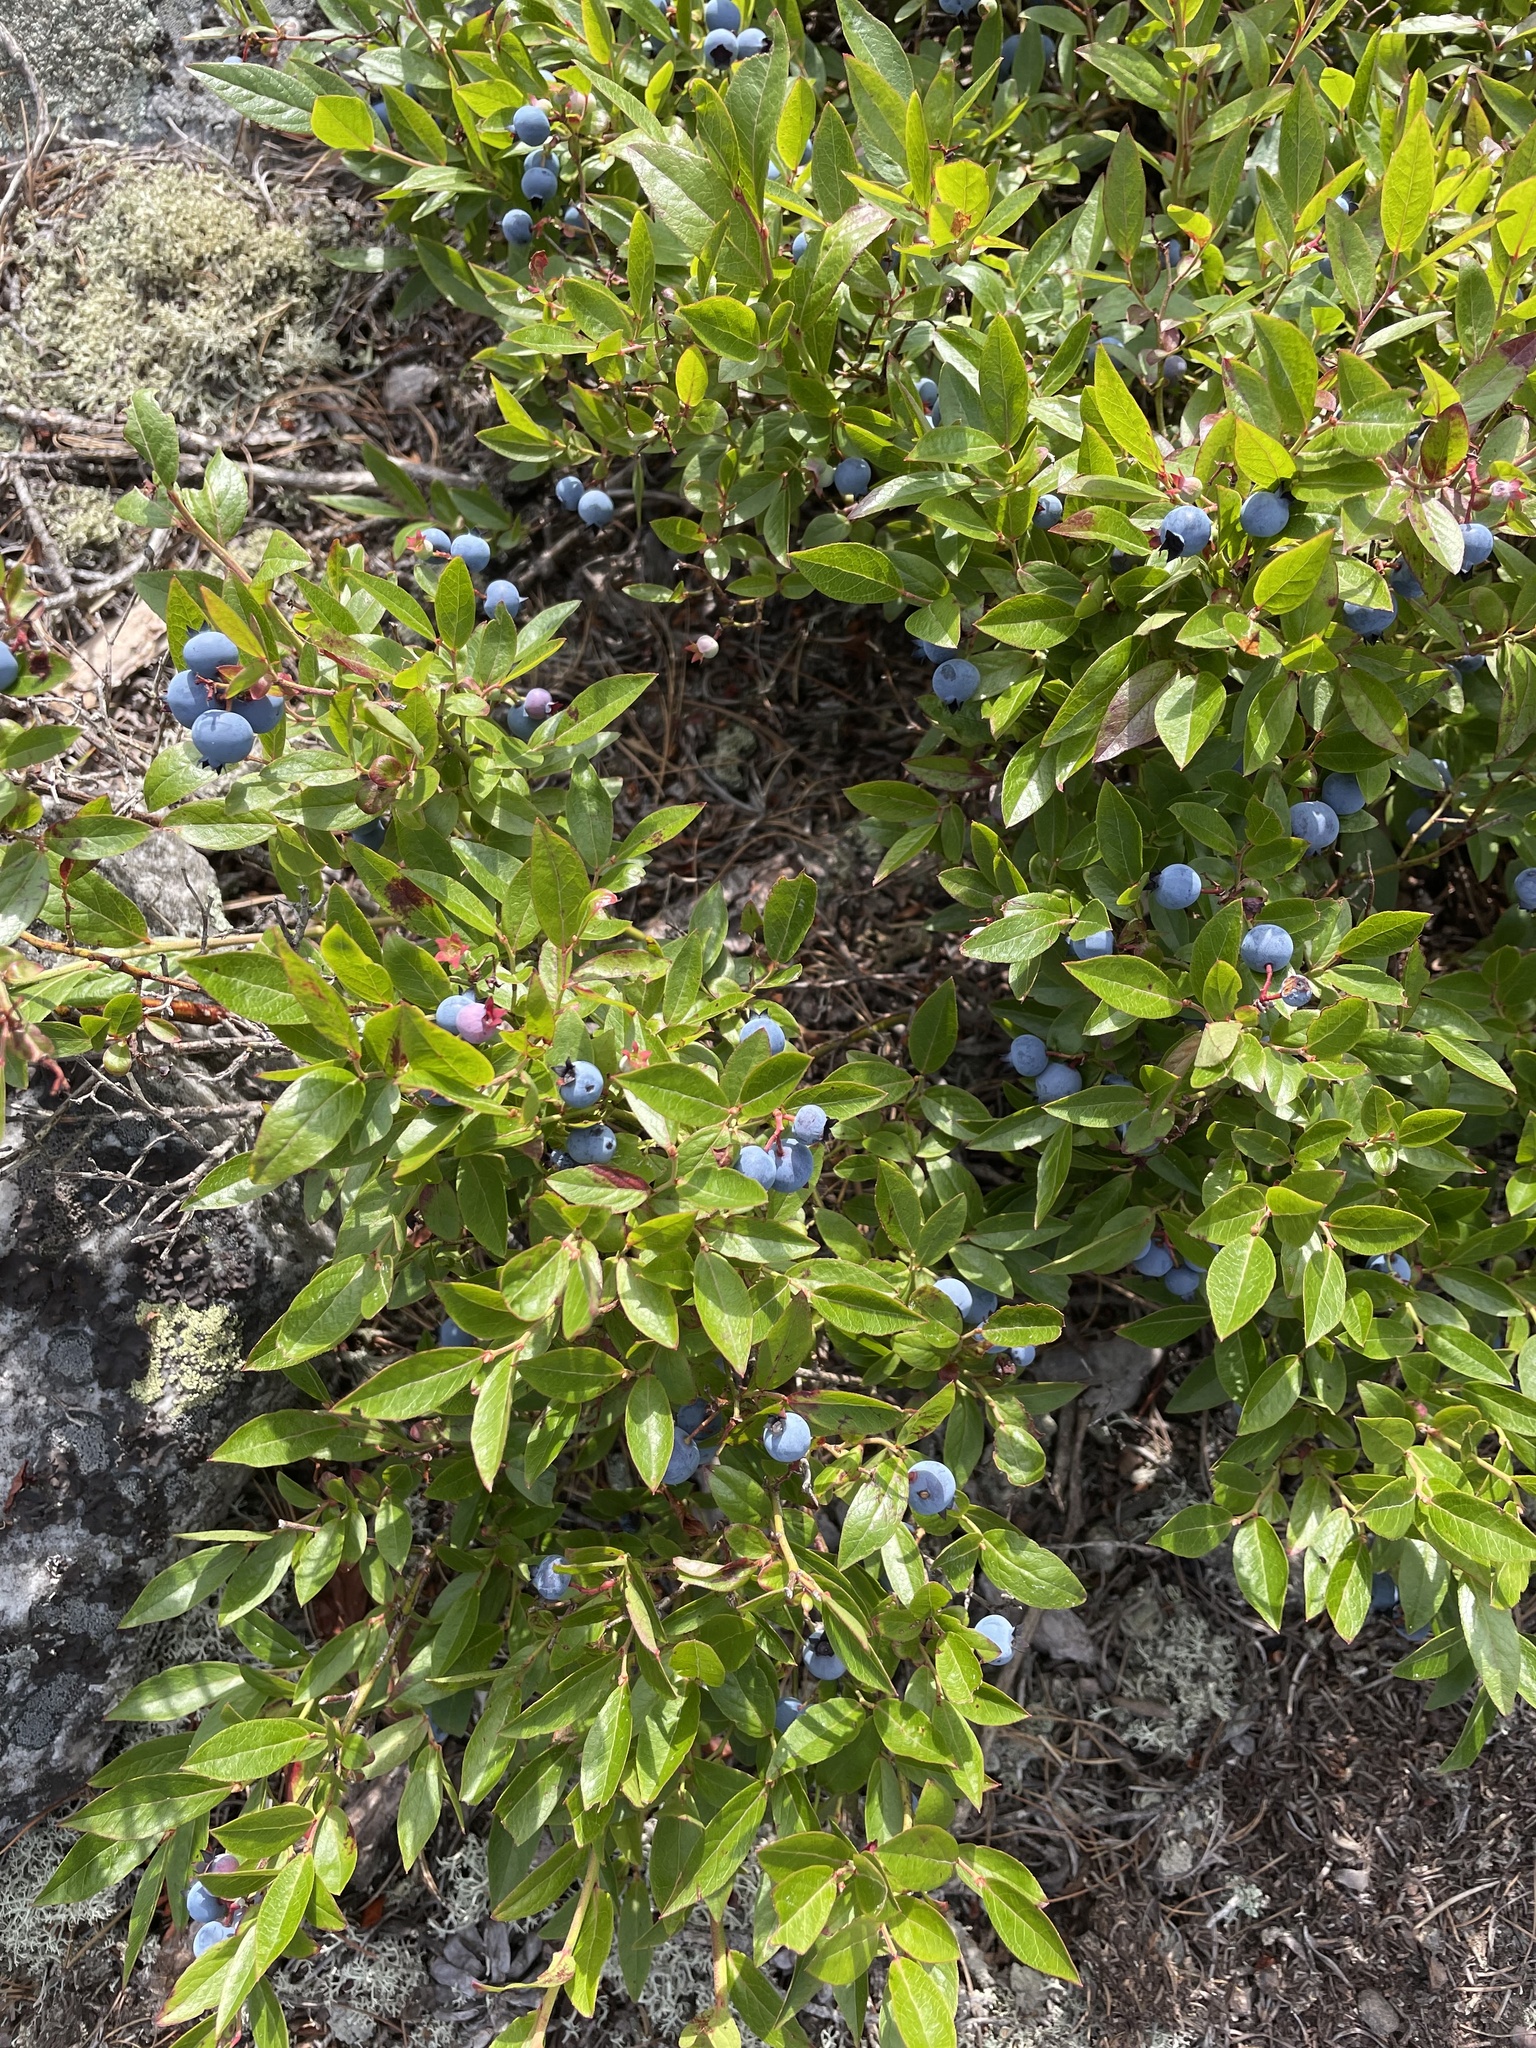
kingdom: Plantae
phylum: Tracheophyta
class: Magnoliopsida
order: Ericales
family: Ericaceae
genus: Vaccinium
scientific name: Vaccinium angustifolium
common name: Early lowbush blueberry
